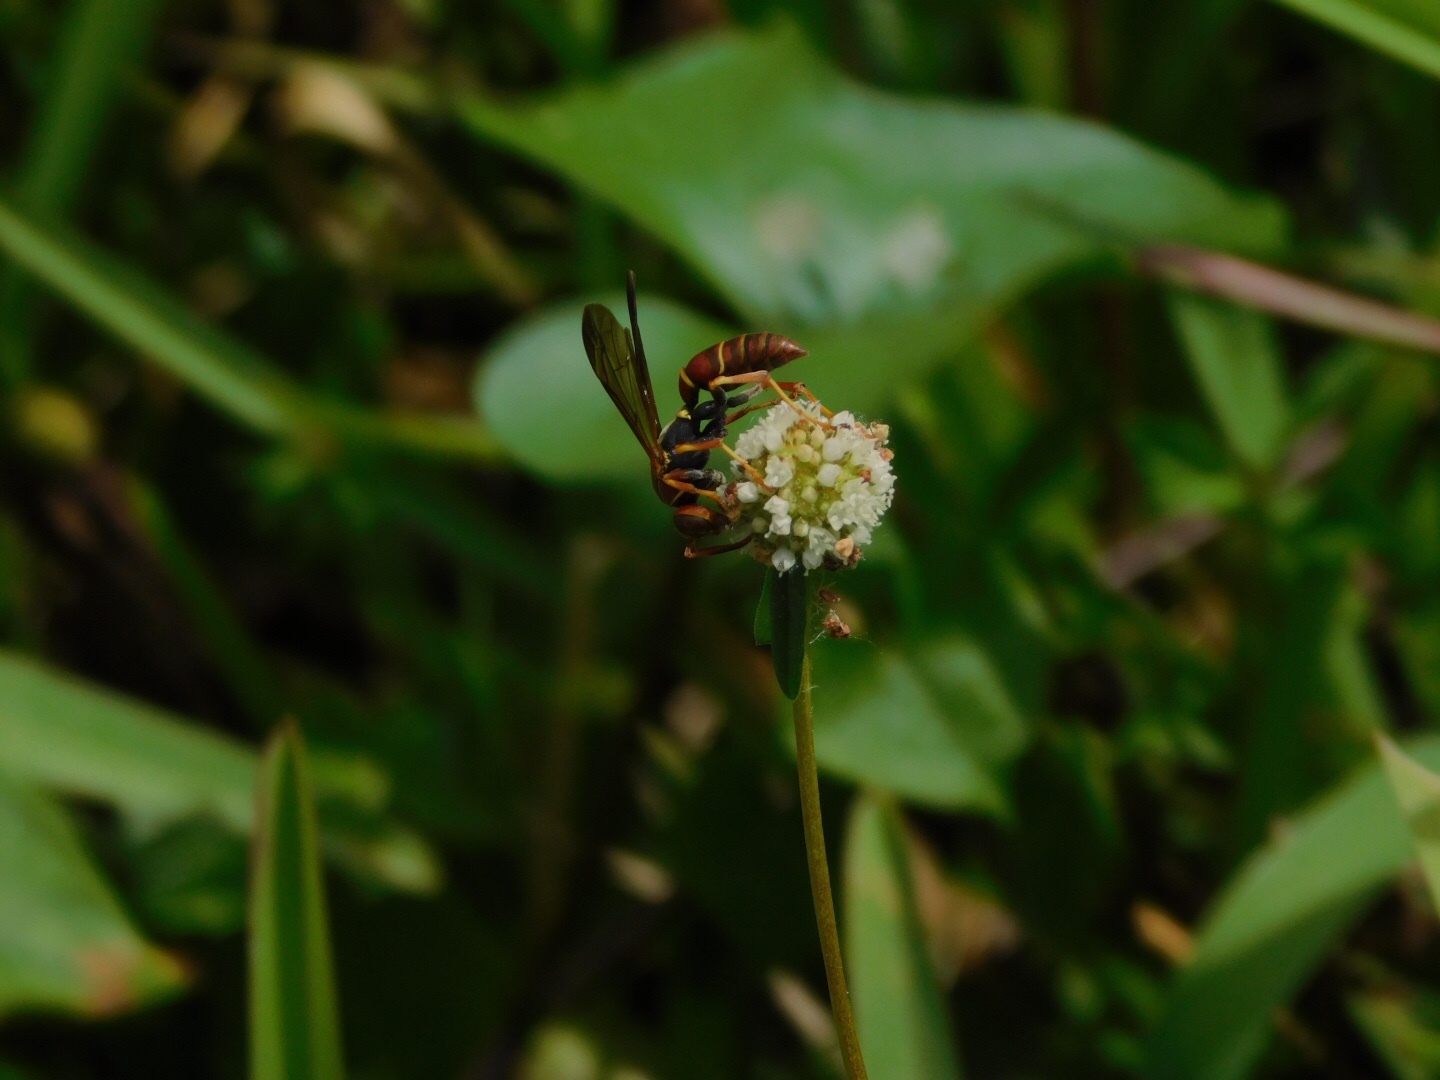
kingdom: Animalia
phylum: Arthropoda
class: Insecta
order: Hymenoptera
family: Eumenidae
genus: Polistes
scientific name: Polistes dorsalis
